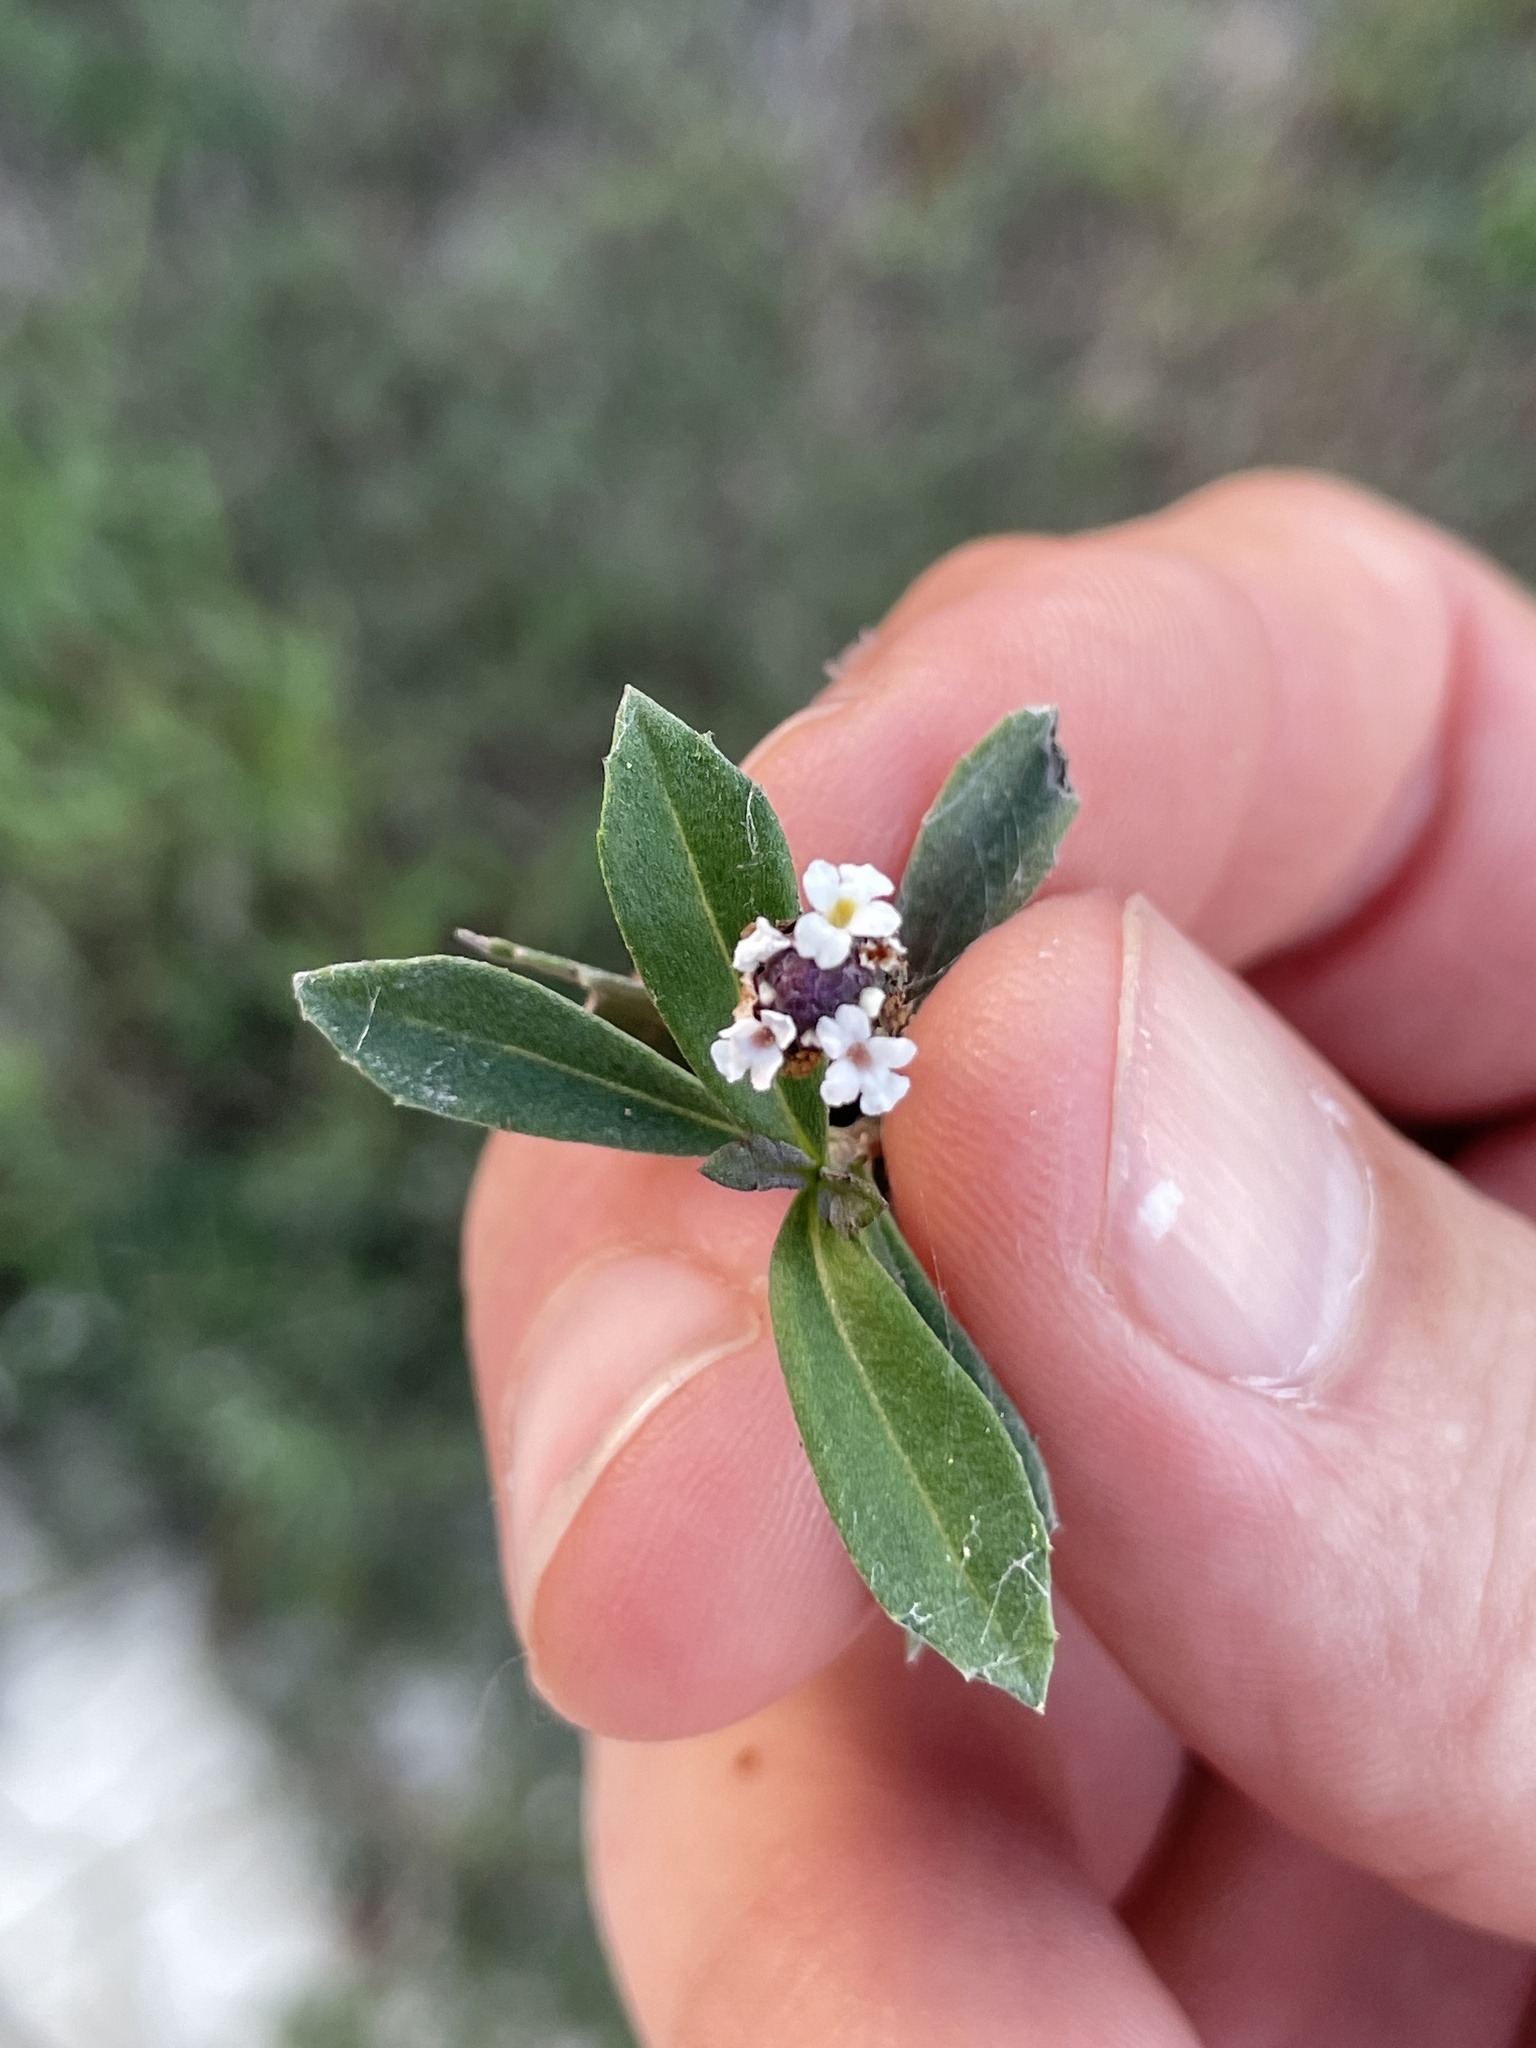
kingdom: Plantae
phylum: Tracheophyta
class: Magnoliopsida
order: Lamiales
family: Verbenaceae
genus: Phyla
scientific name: Phyla nodiflora
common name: Frogfruit
